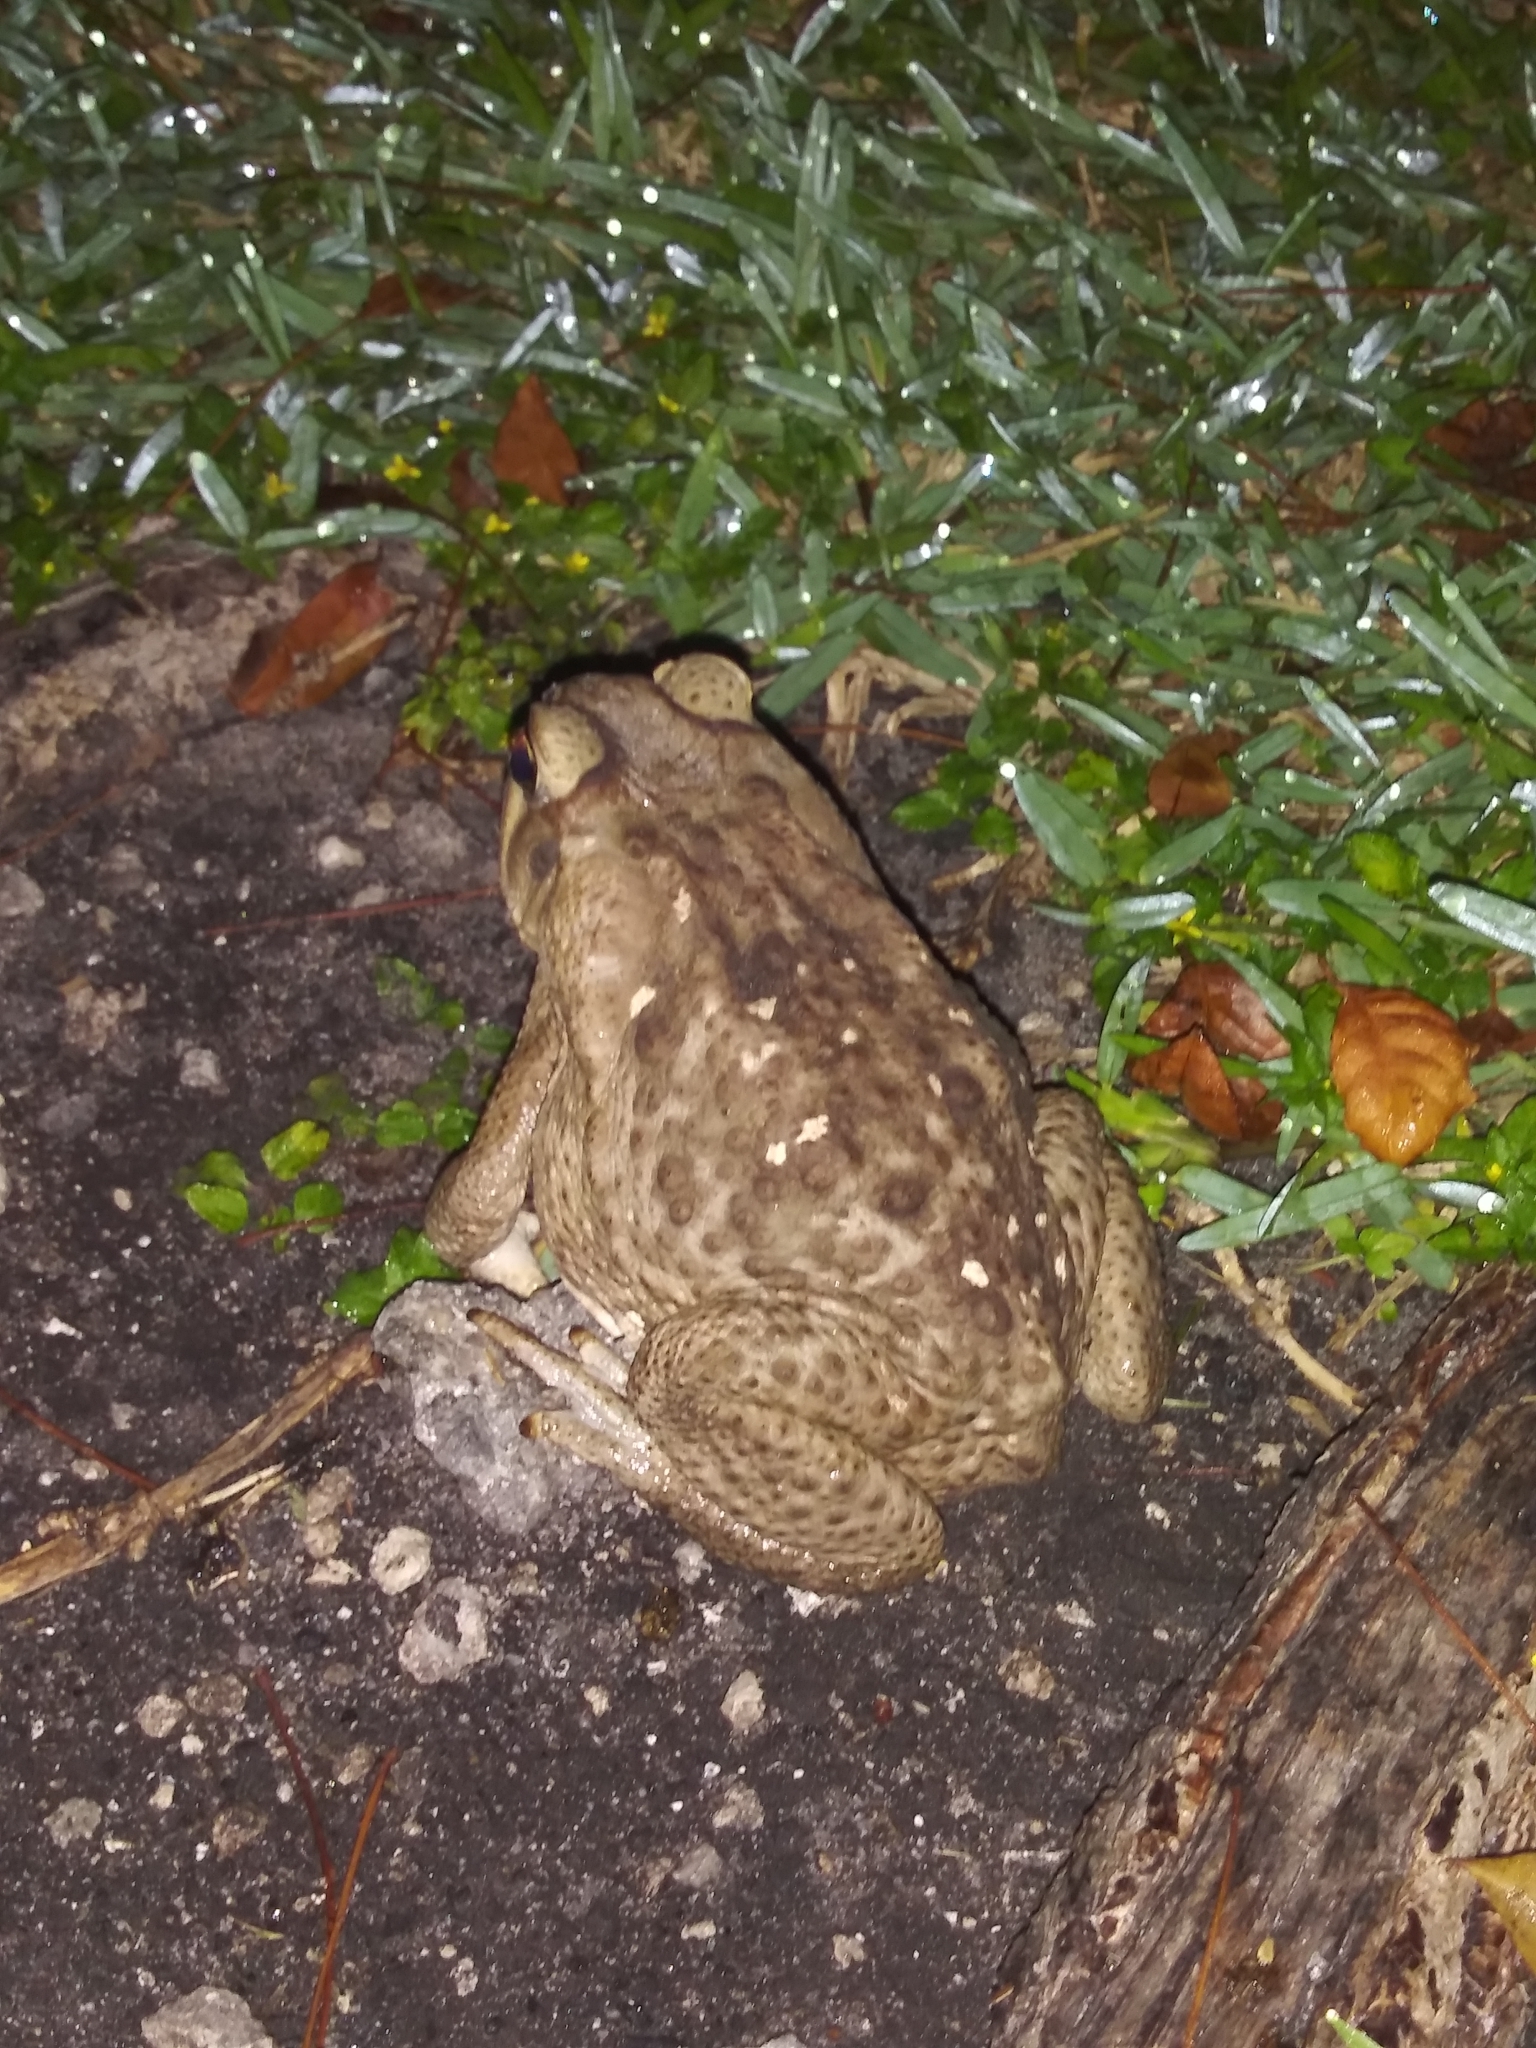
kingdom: Animalia
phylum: Chordata
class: Amphibia
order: Anura
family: Bufonidae
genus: Rhinella
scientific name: Rhinella marina
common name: Cane toad
